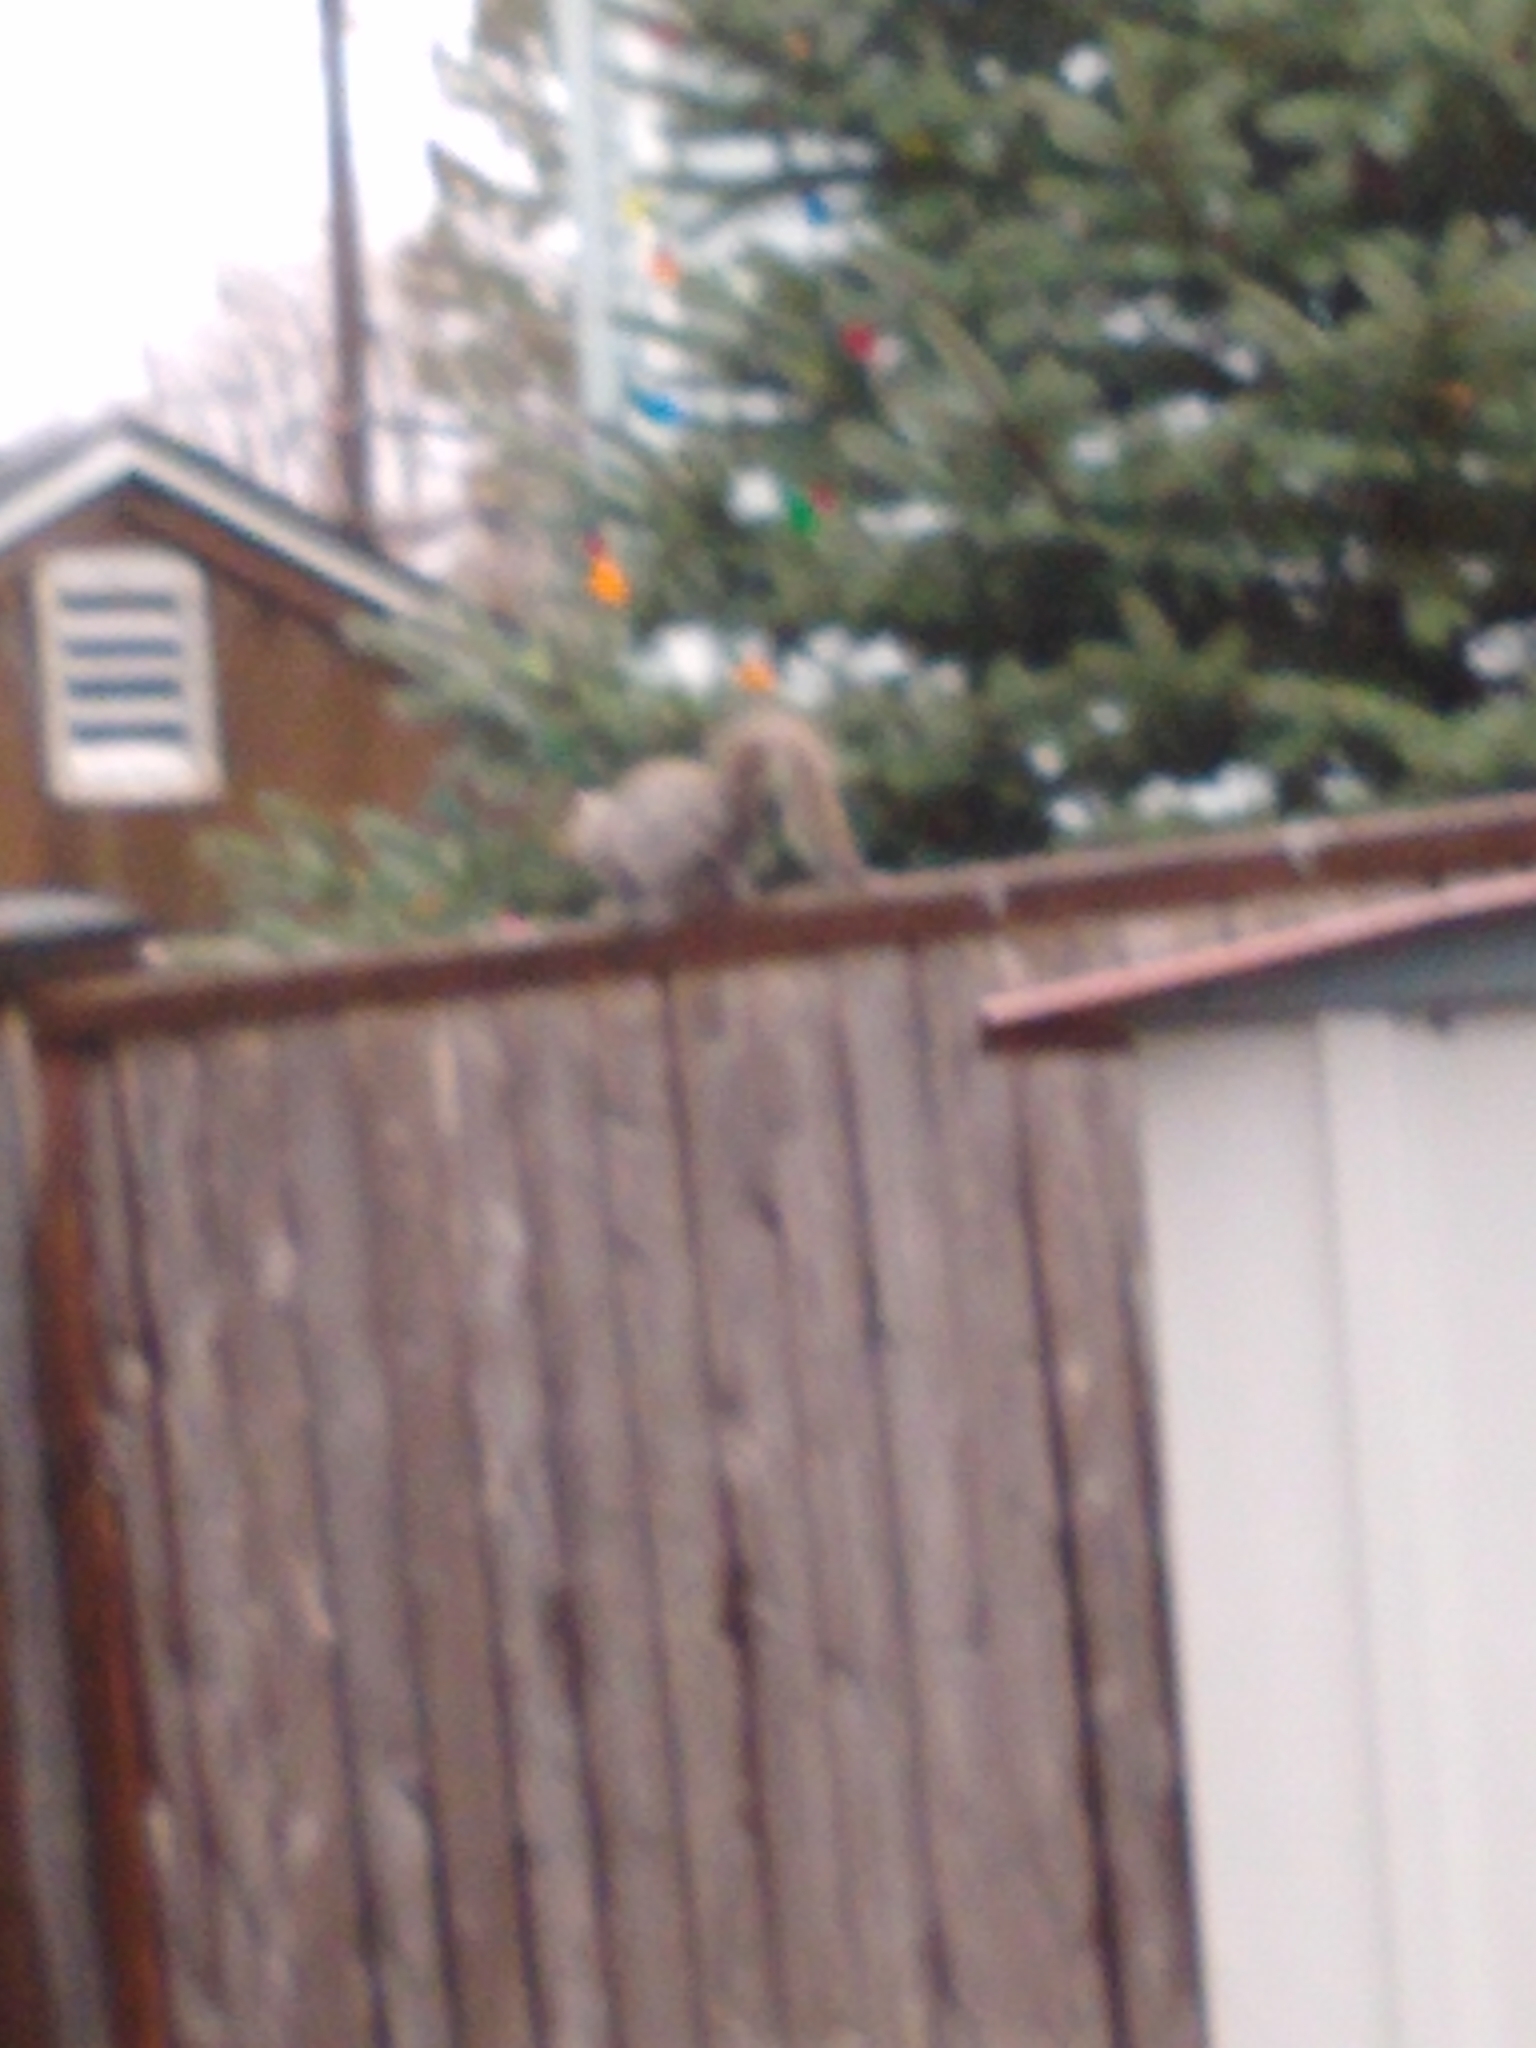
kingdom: Animalia
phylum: Chordata
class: Mammalia
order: Rodentia
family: Sciuridae
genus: Sciurus
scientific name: Sciurus carolinensis
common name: Eastern gray squirrel
